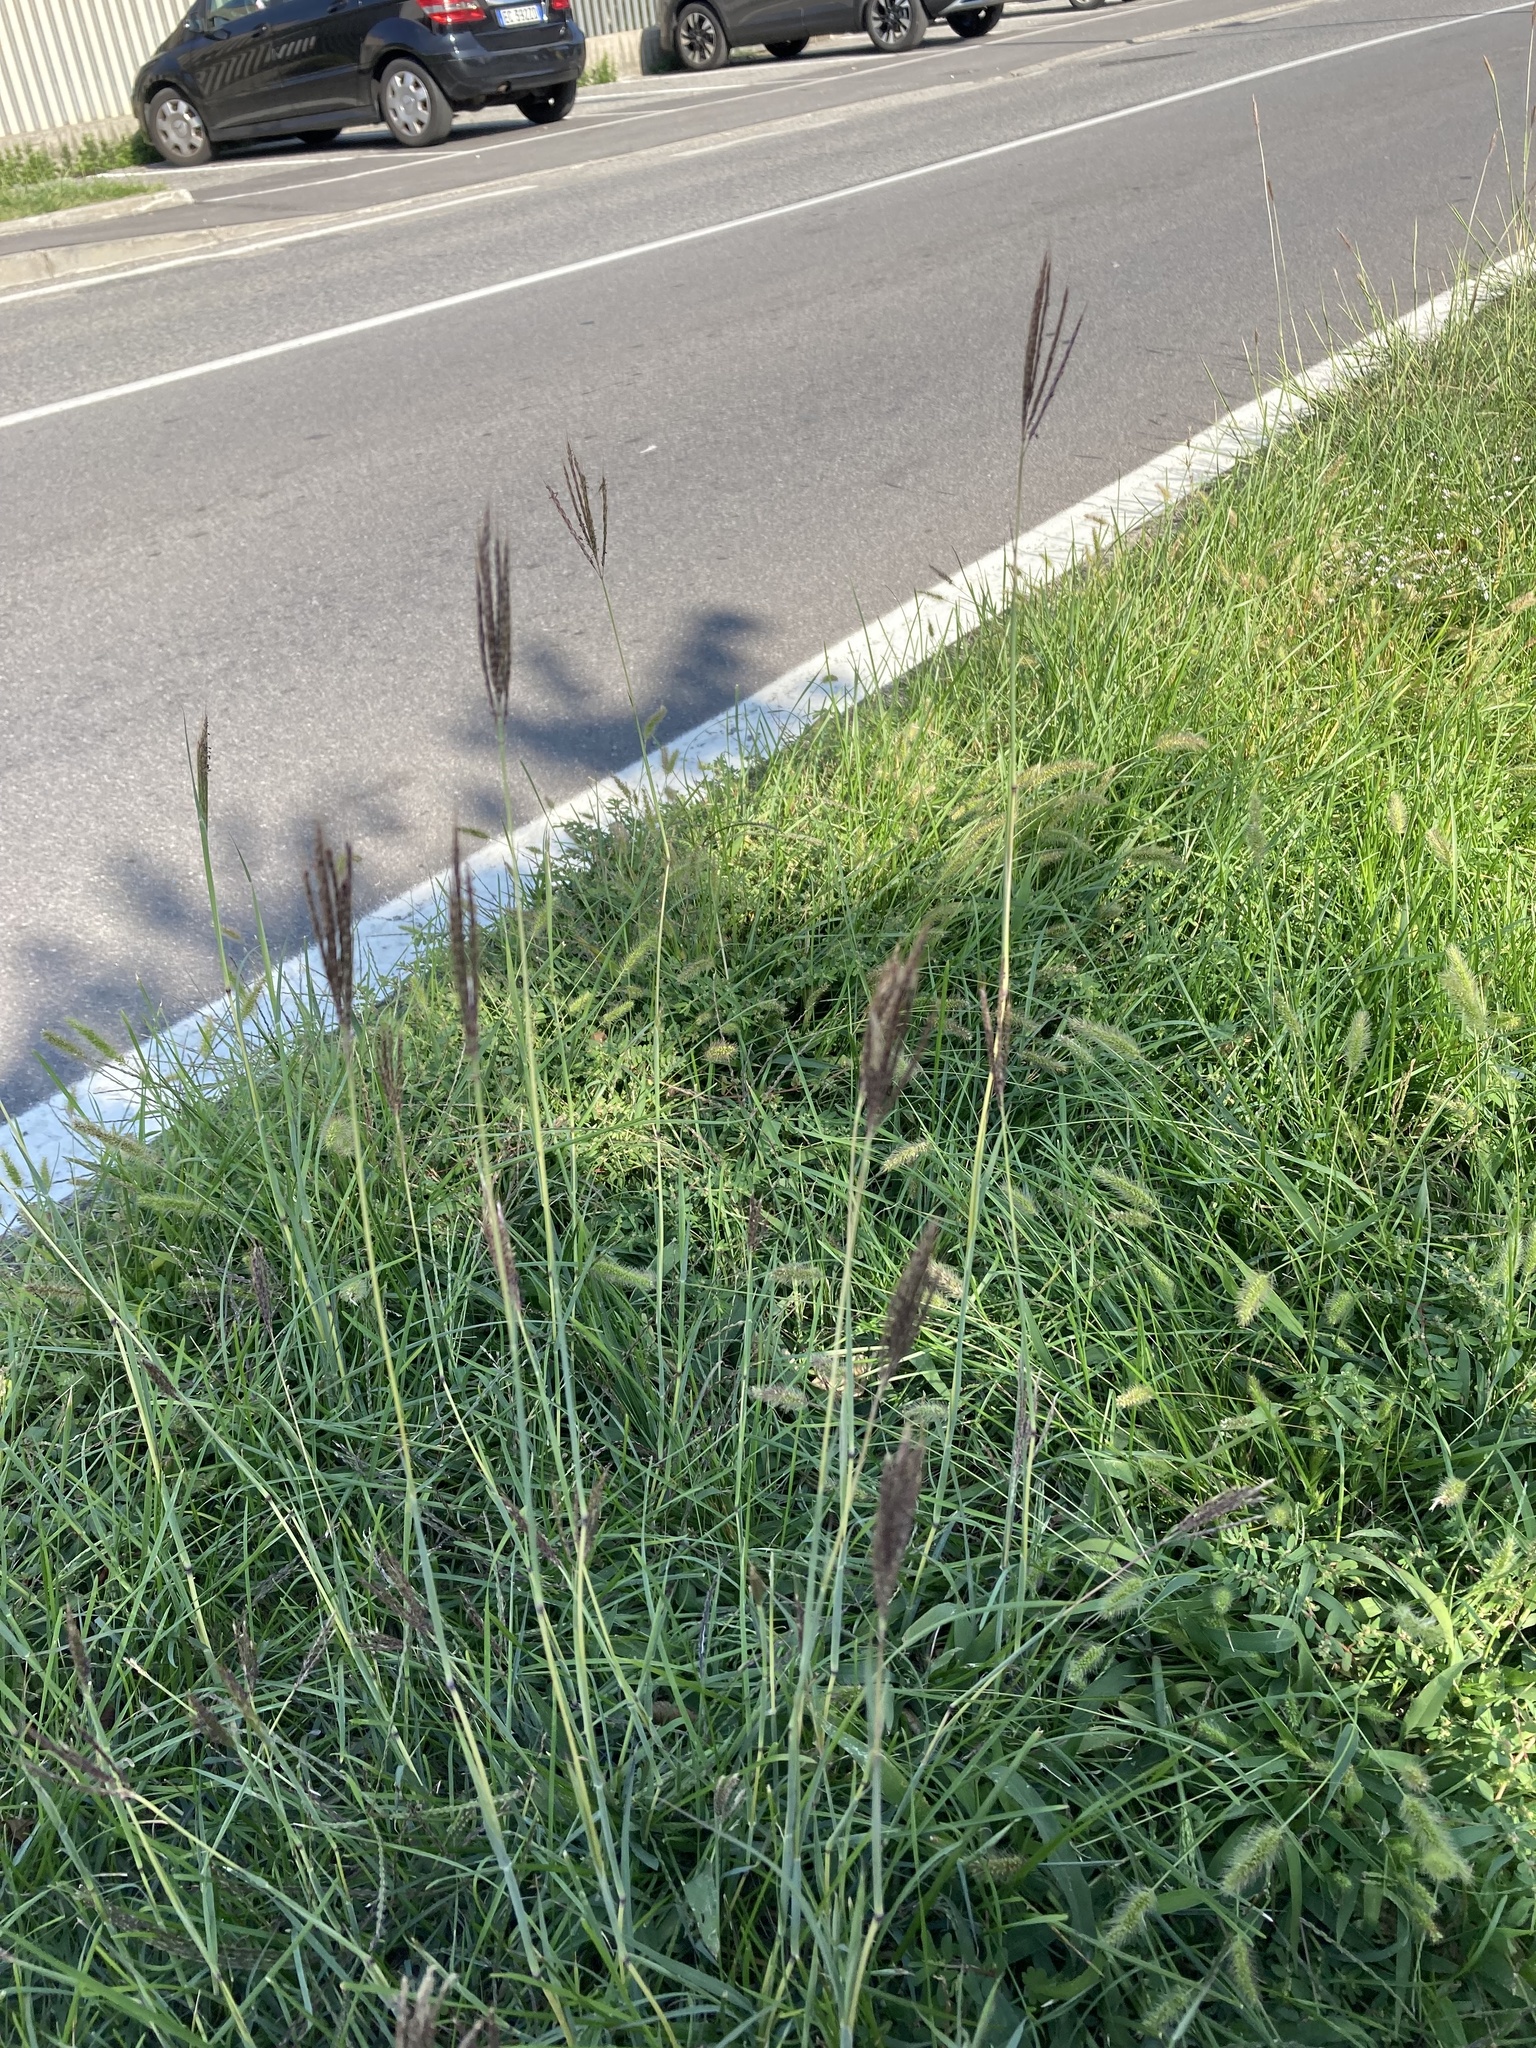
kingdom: Plantae
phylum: Tracheophyta
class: Liliopsida
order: Poales
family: Poaceae
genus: Bothriochloa
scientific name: Bothriochloa ischaemum
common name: Yellow bluestem
